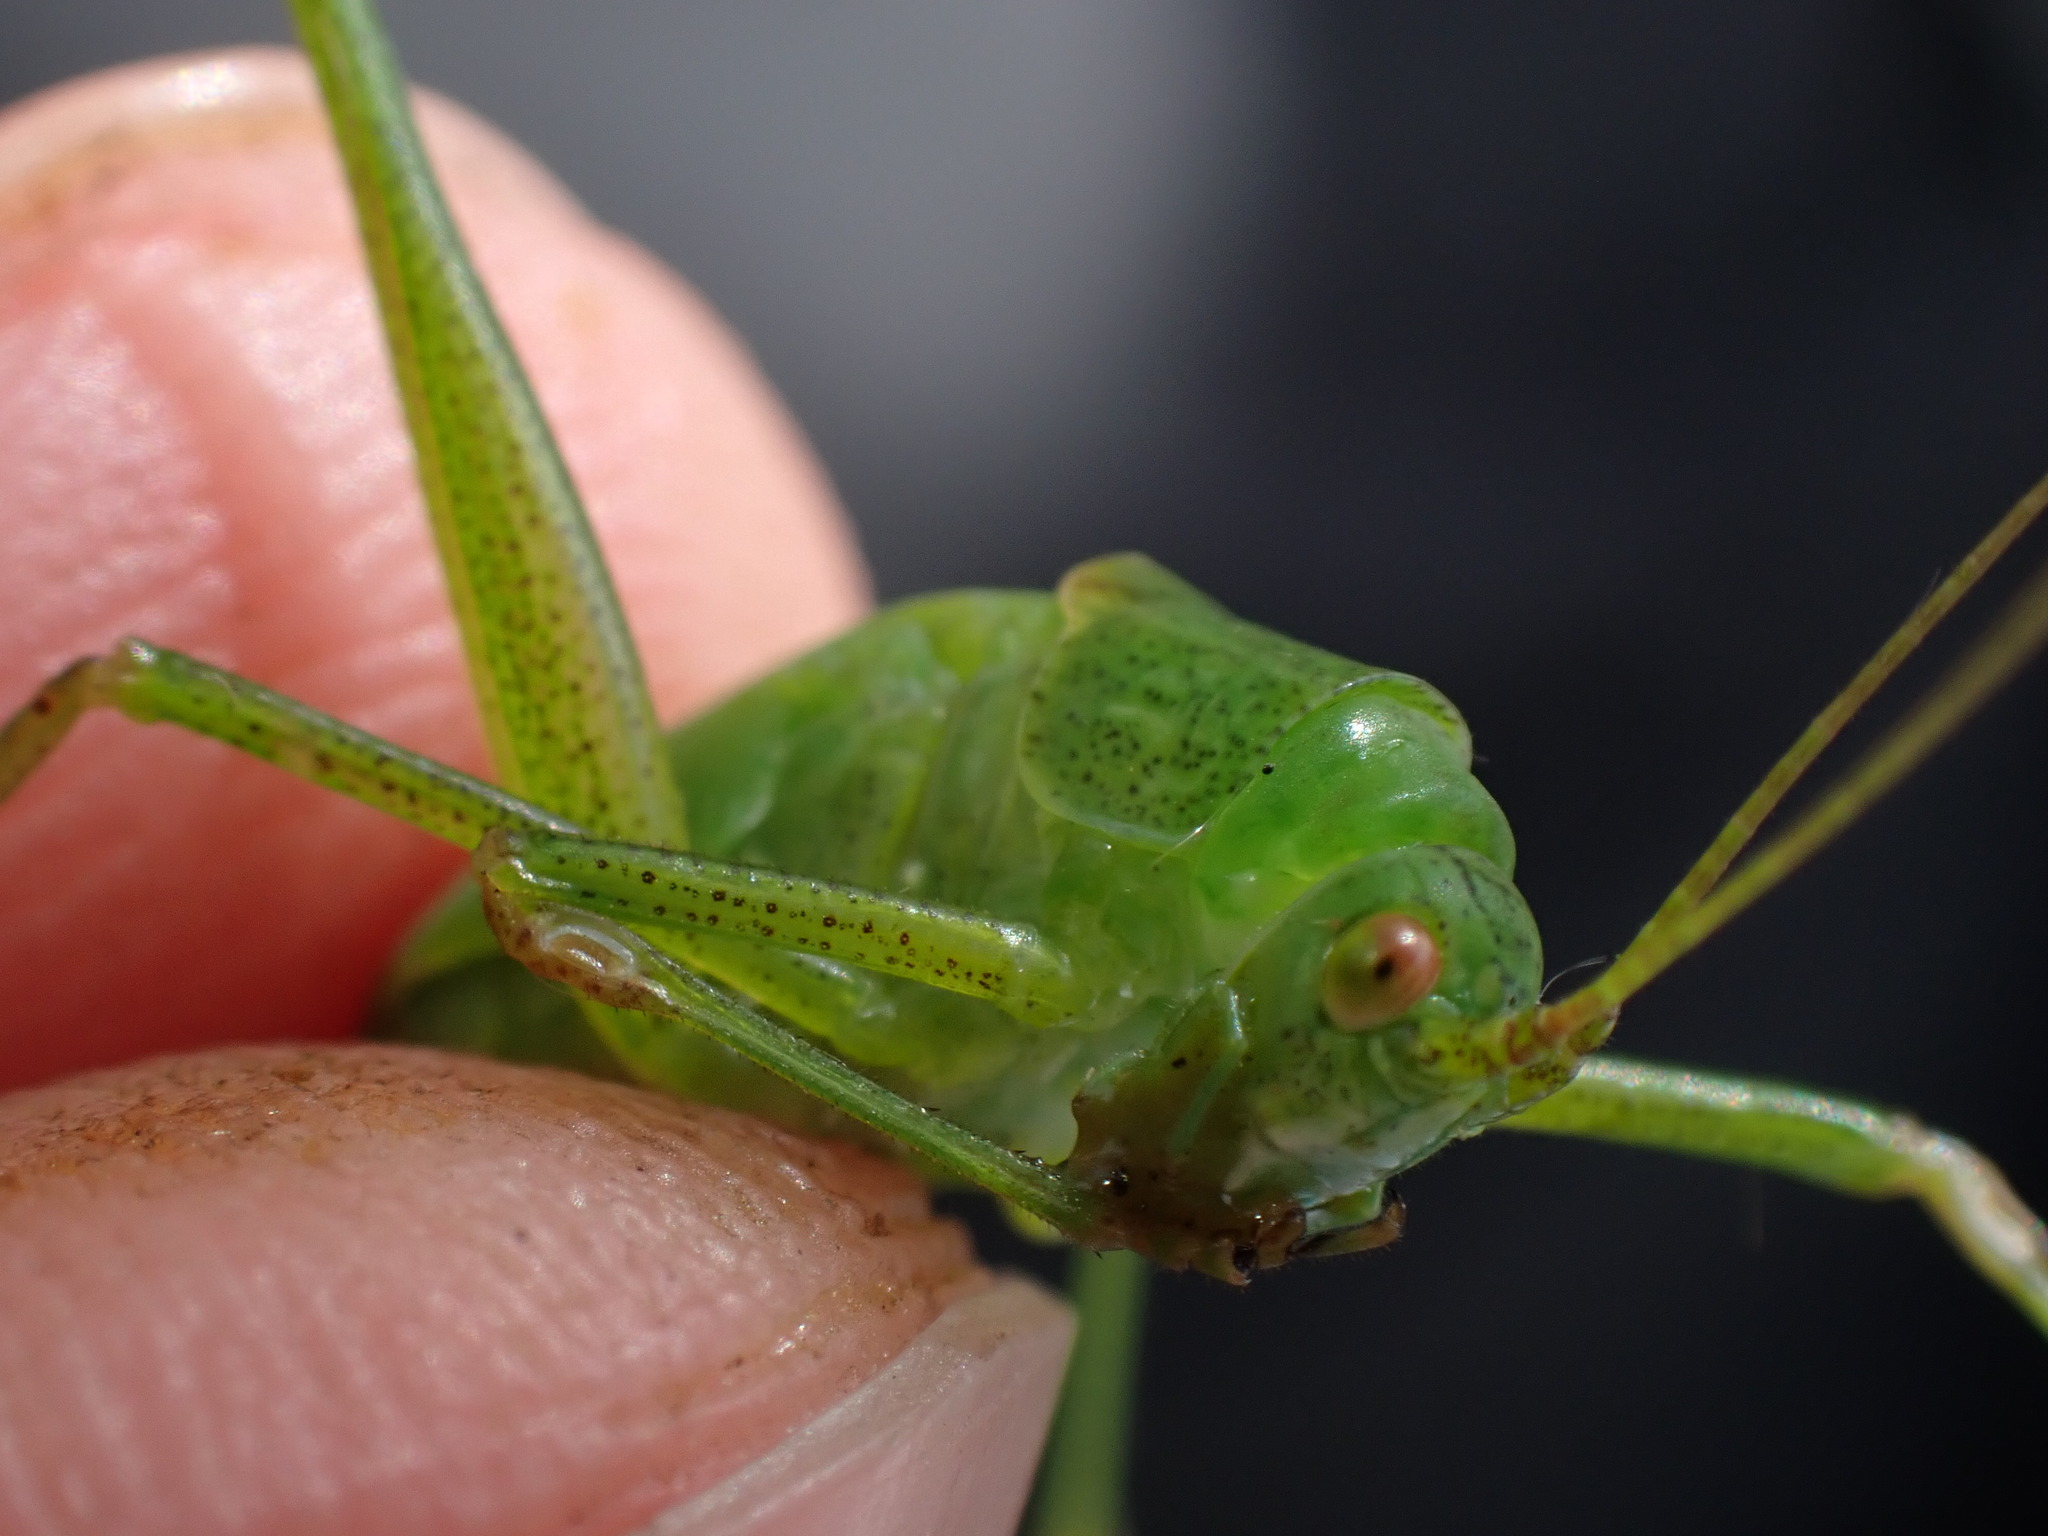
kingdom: Animalia
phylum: Arthropoda
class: Insecta
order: Orthoptera
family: Tettigoniidae
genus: Phaneroptera
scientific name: Phaneroptera falcata
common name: Sickle-bearing bush-cricket
